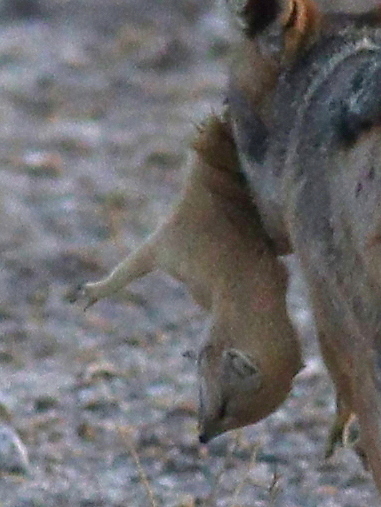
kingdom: Animalia
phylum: Chordata
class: Mammalia
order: Carnivora
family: Herpestidae
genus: Cynictis
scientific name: Cynictis penicillata
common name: Yellow mongoose
